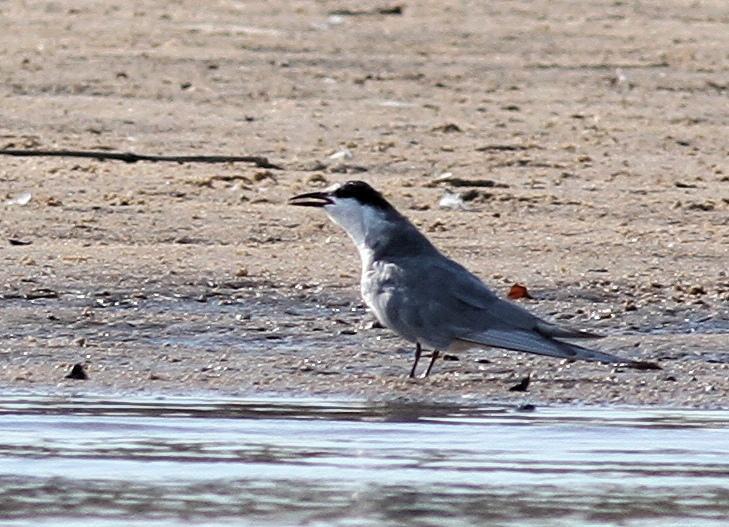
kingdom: Animalia
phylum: Chordata
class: Aves
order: Charadriiformes
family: Laridae
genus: Chlidonias
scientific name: Chlidonias hybrida
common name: Whiskered tern
